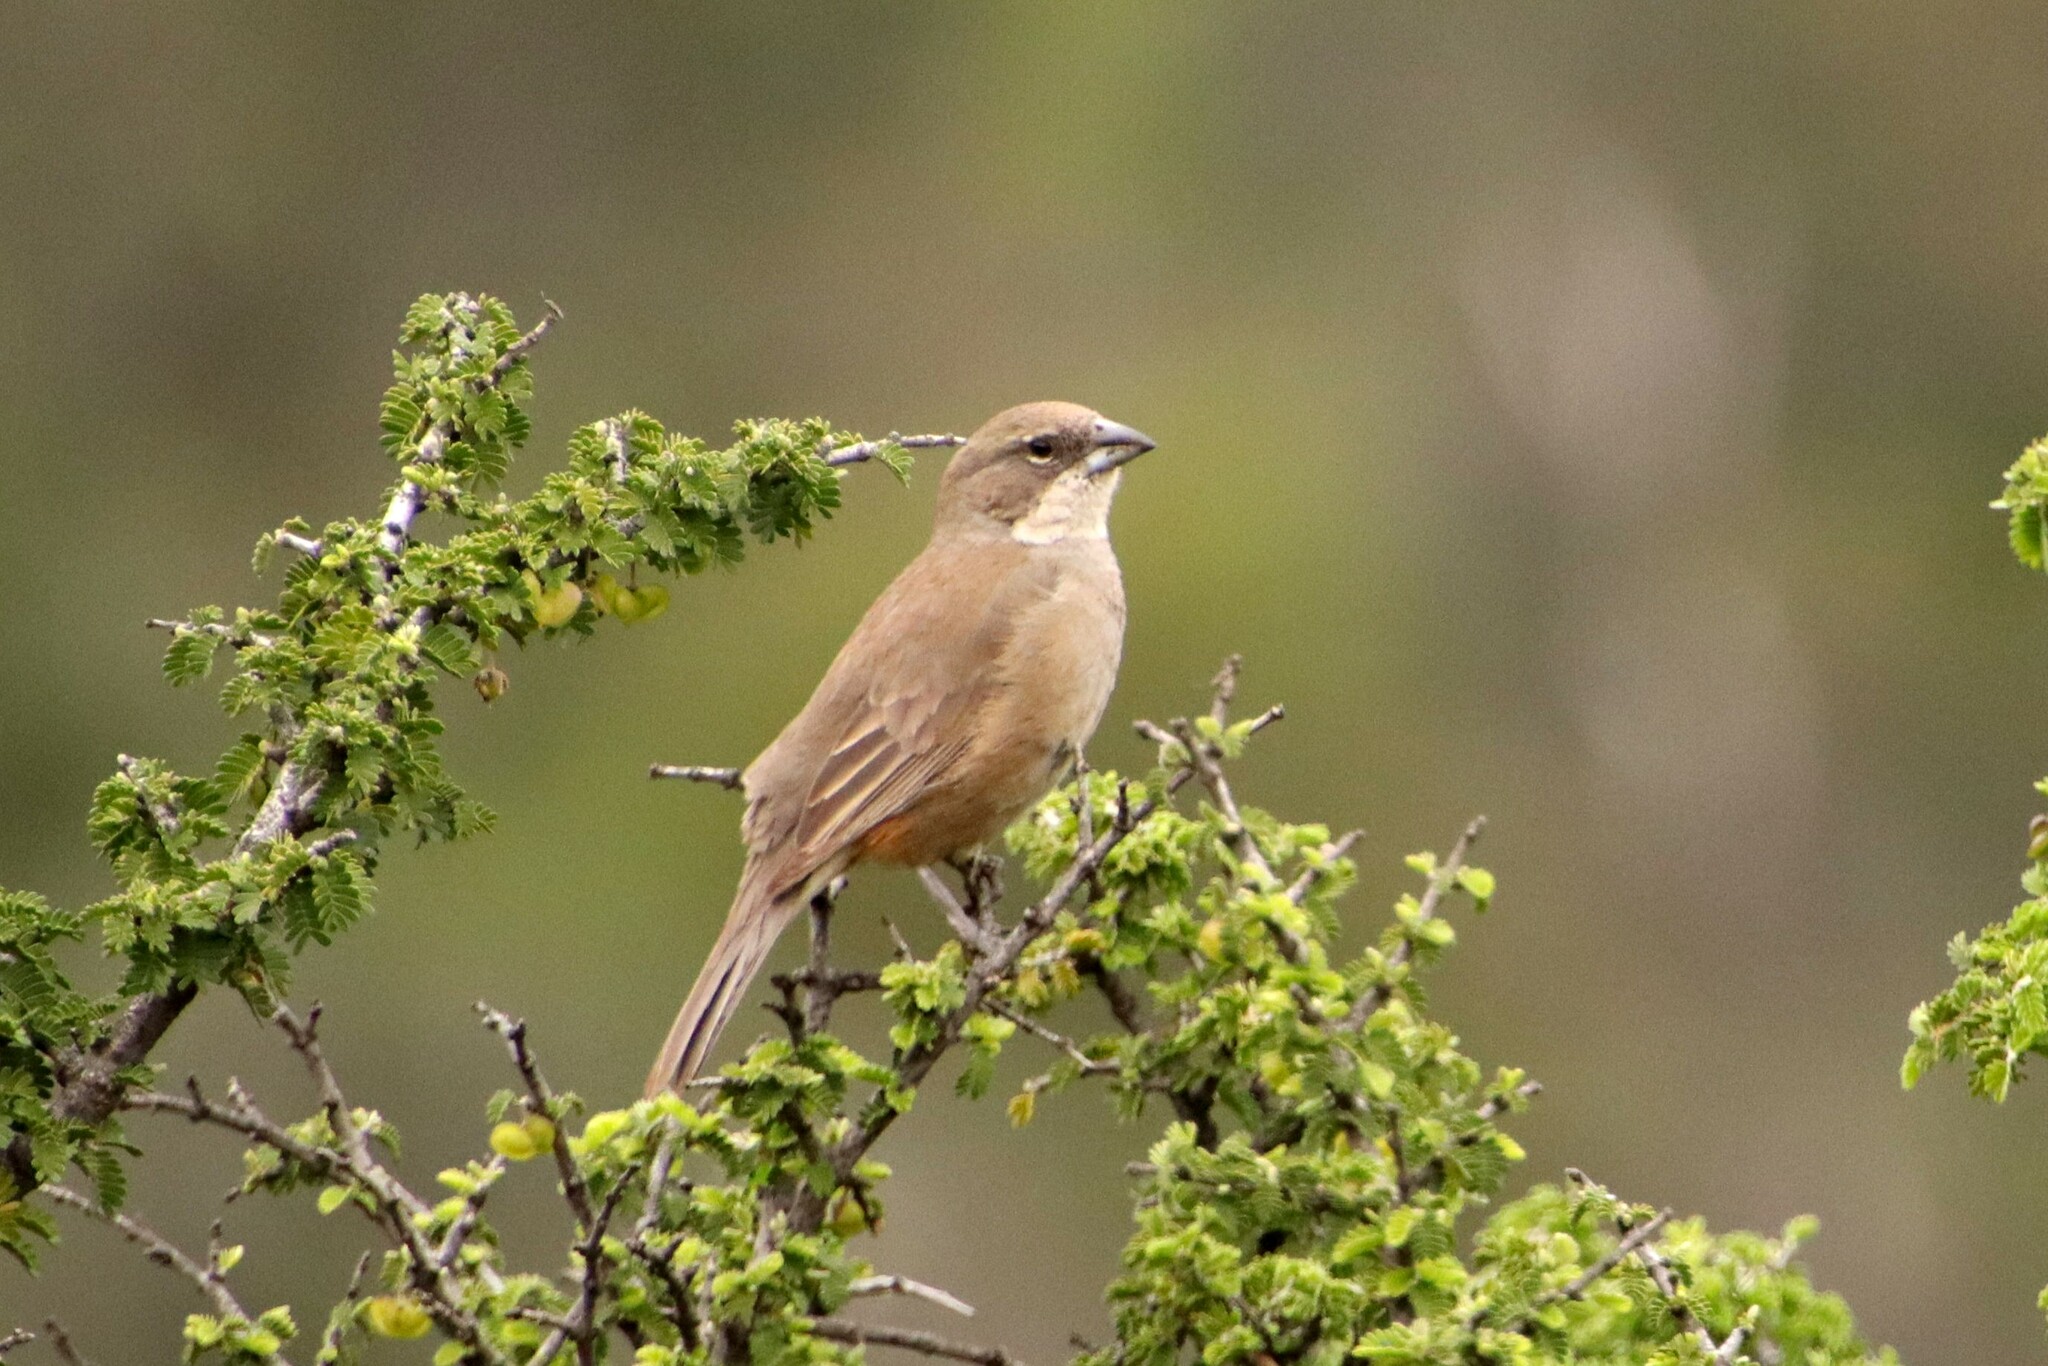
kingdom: Animalia
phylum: Chordata
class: Aves
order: Passeriformes
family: Thraupidae
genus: Diuca
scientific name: Diuca diuca
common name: Common diuca finch
